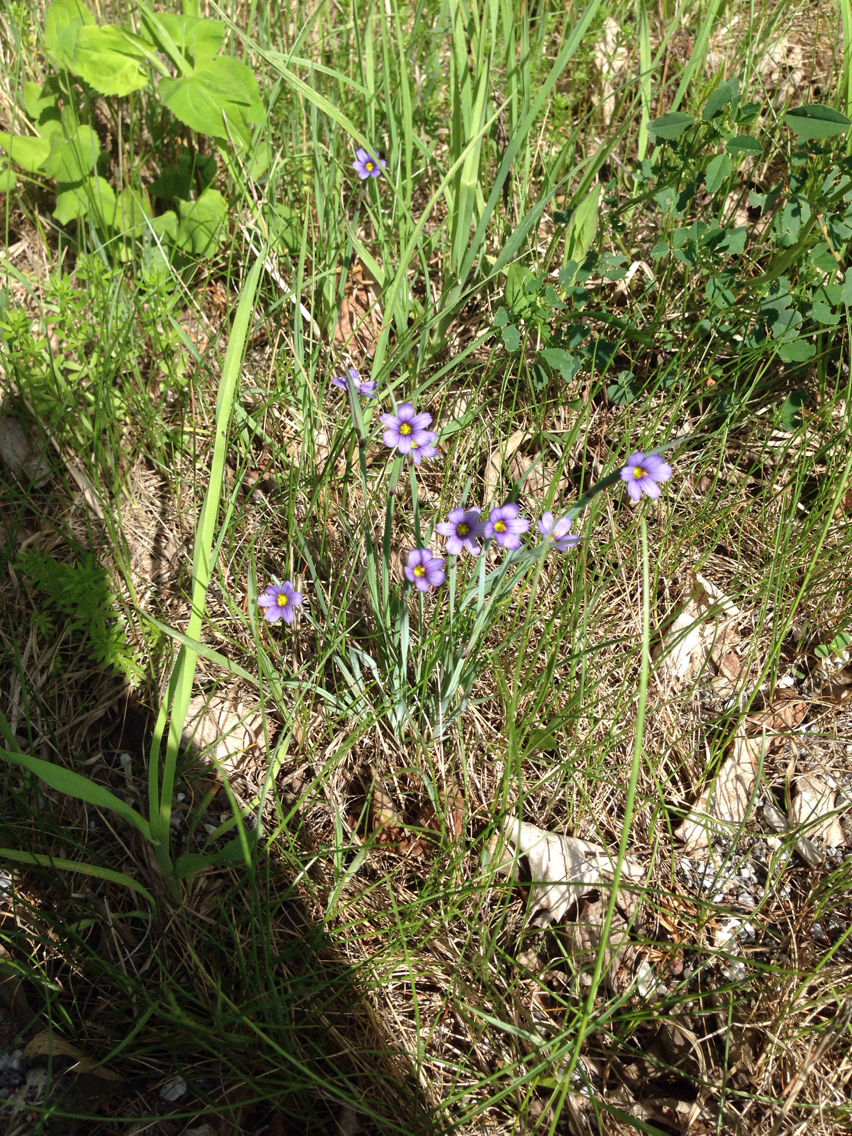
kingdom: Plantae
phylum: Tracheophyta
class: Liliopsida
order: Asparagales
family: Iridaceae
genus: Sisyrinchium
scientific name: Sisyrinchium montanum
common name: American blue-eyed-grass
